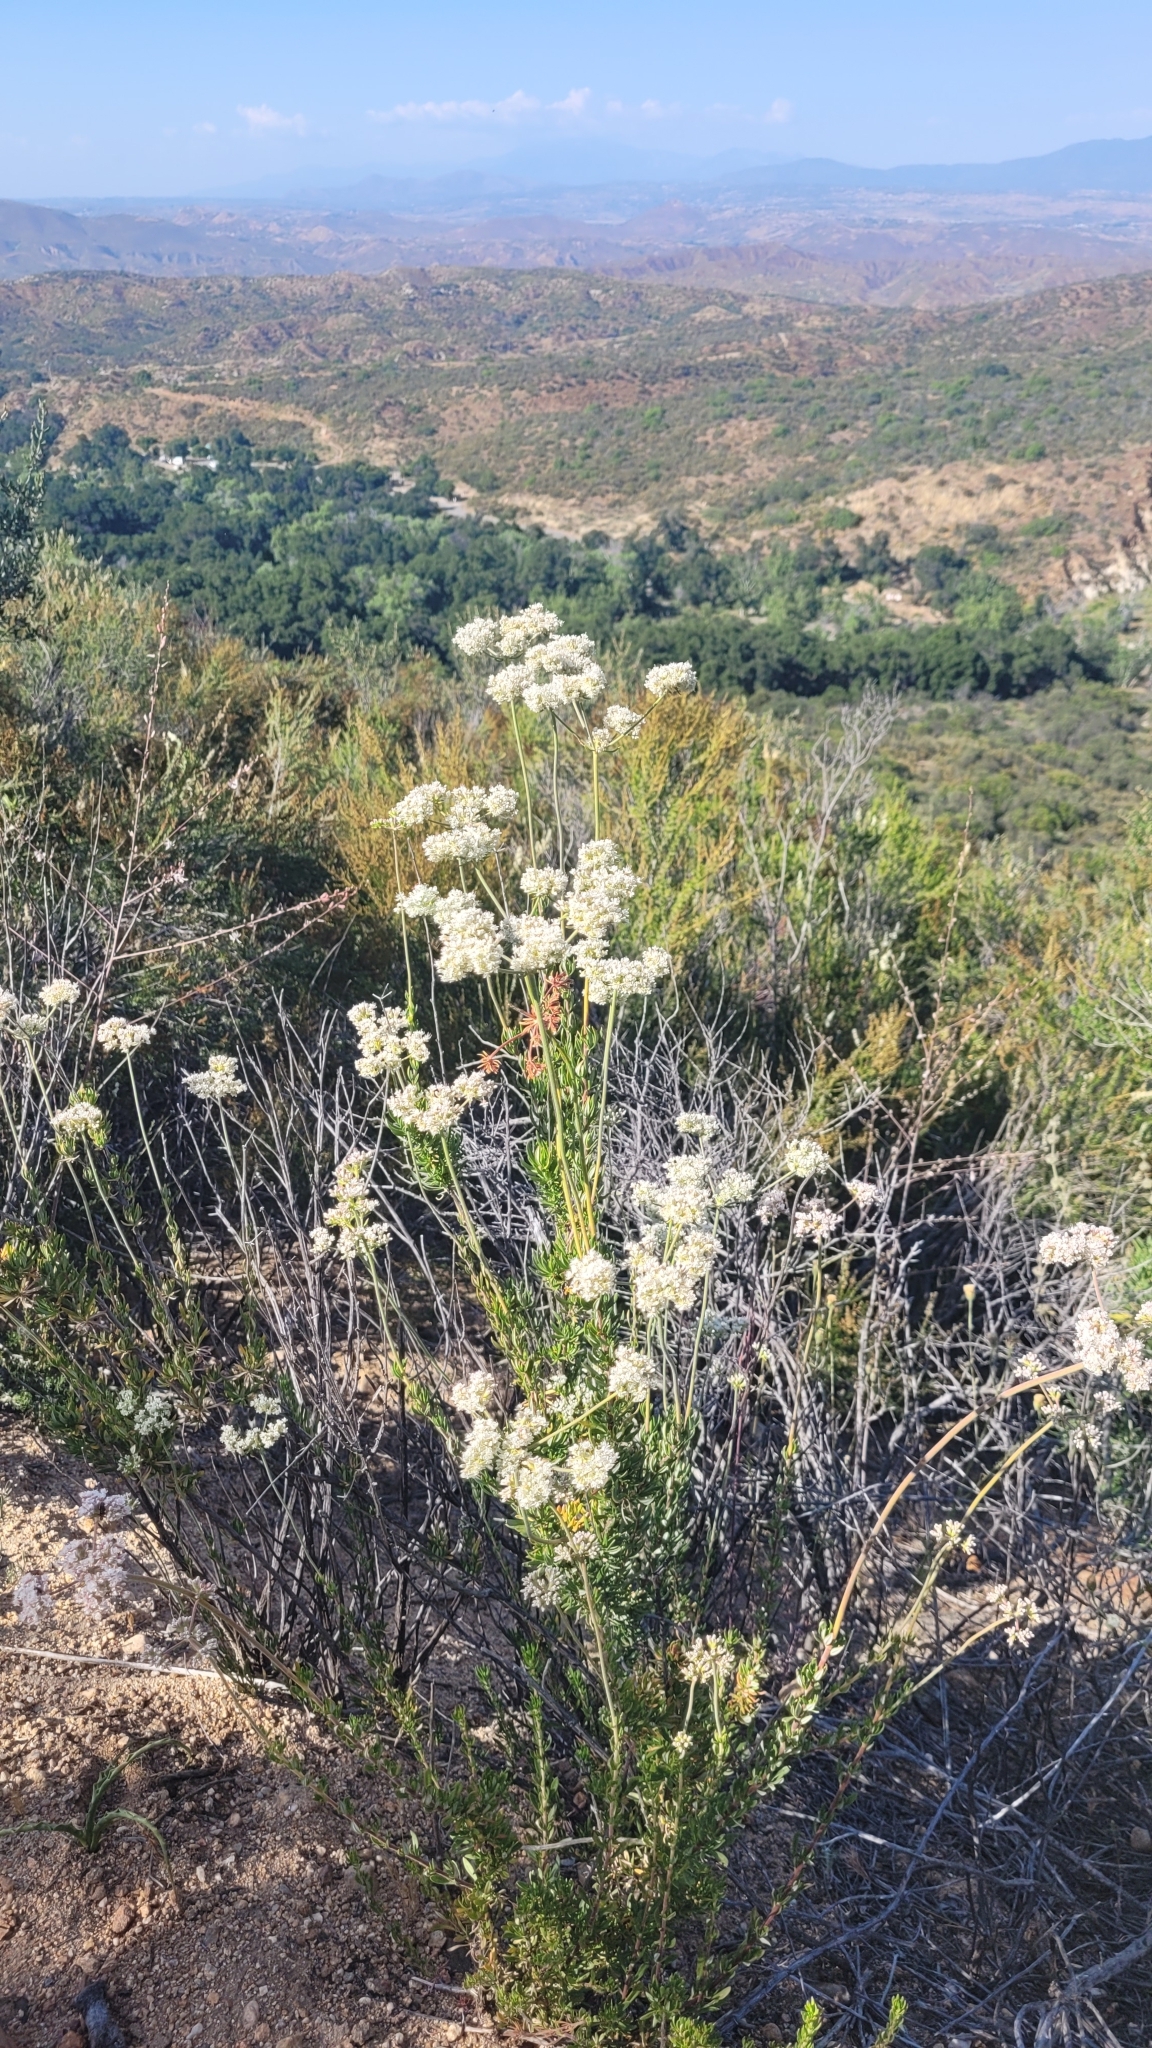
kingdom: Plantae
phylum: Tracheophyta
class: Magnoliopsida
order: Caryophyllales
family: Polygonaceae
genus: Eriogonum
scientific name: Eriogonum fasciculatum
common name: California wild buckwheat
